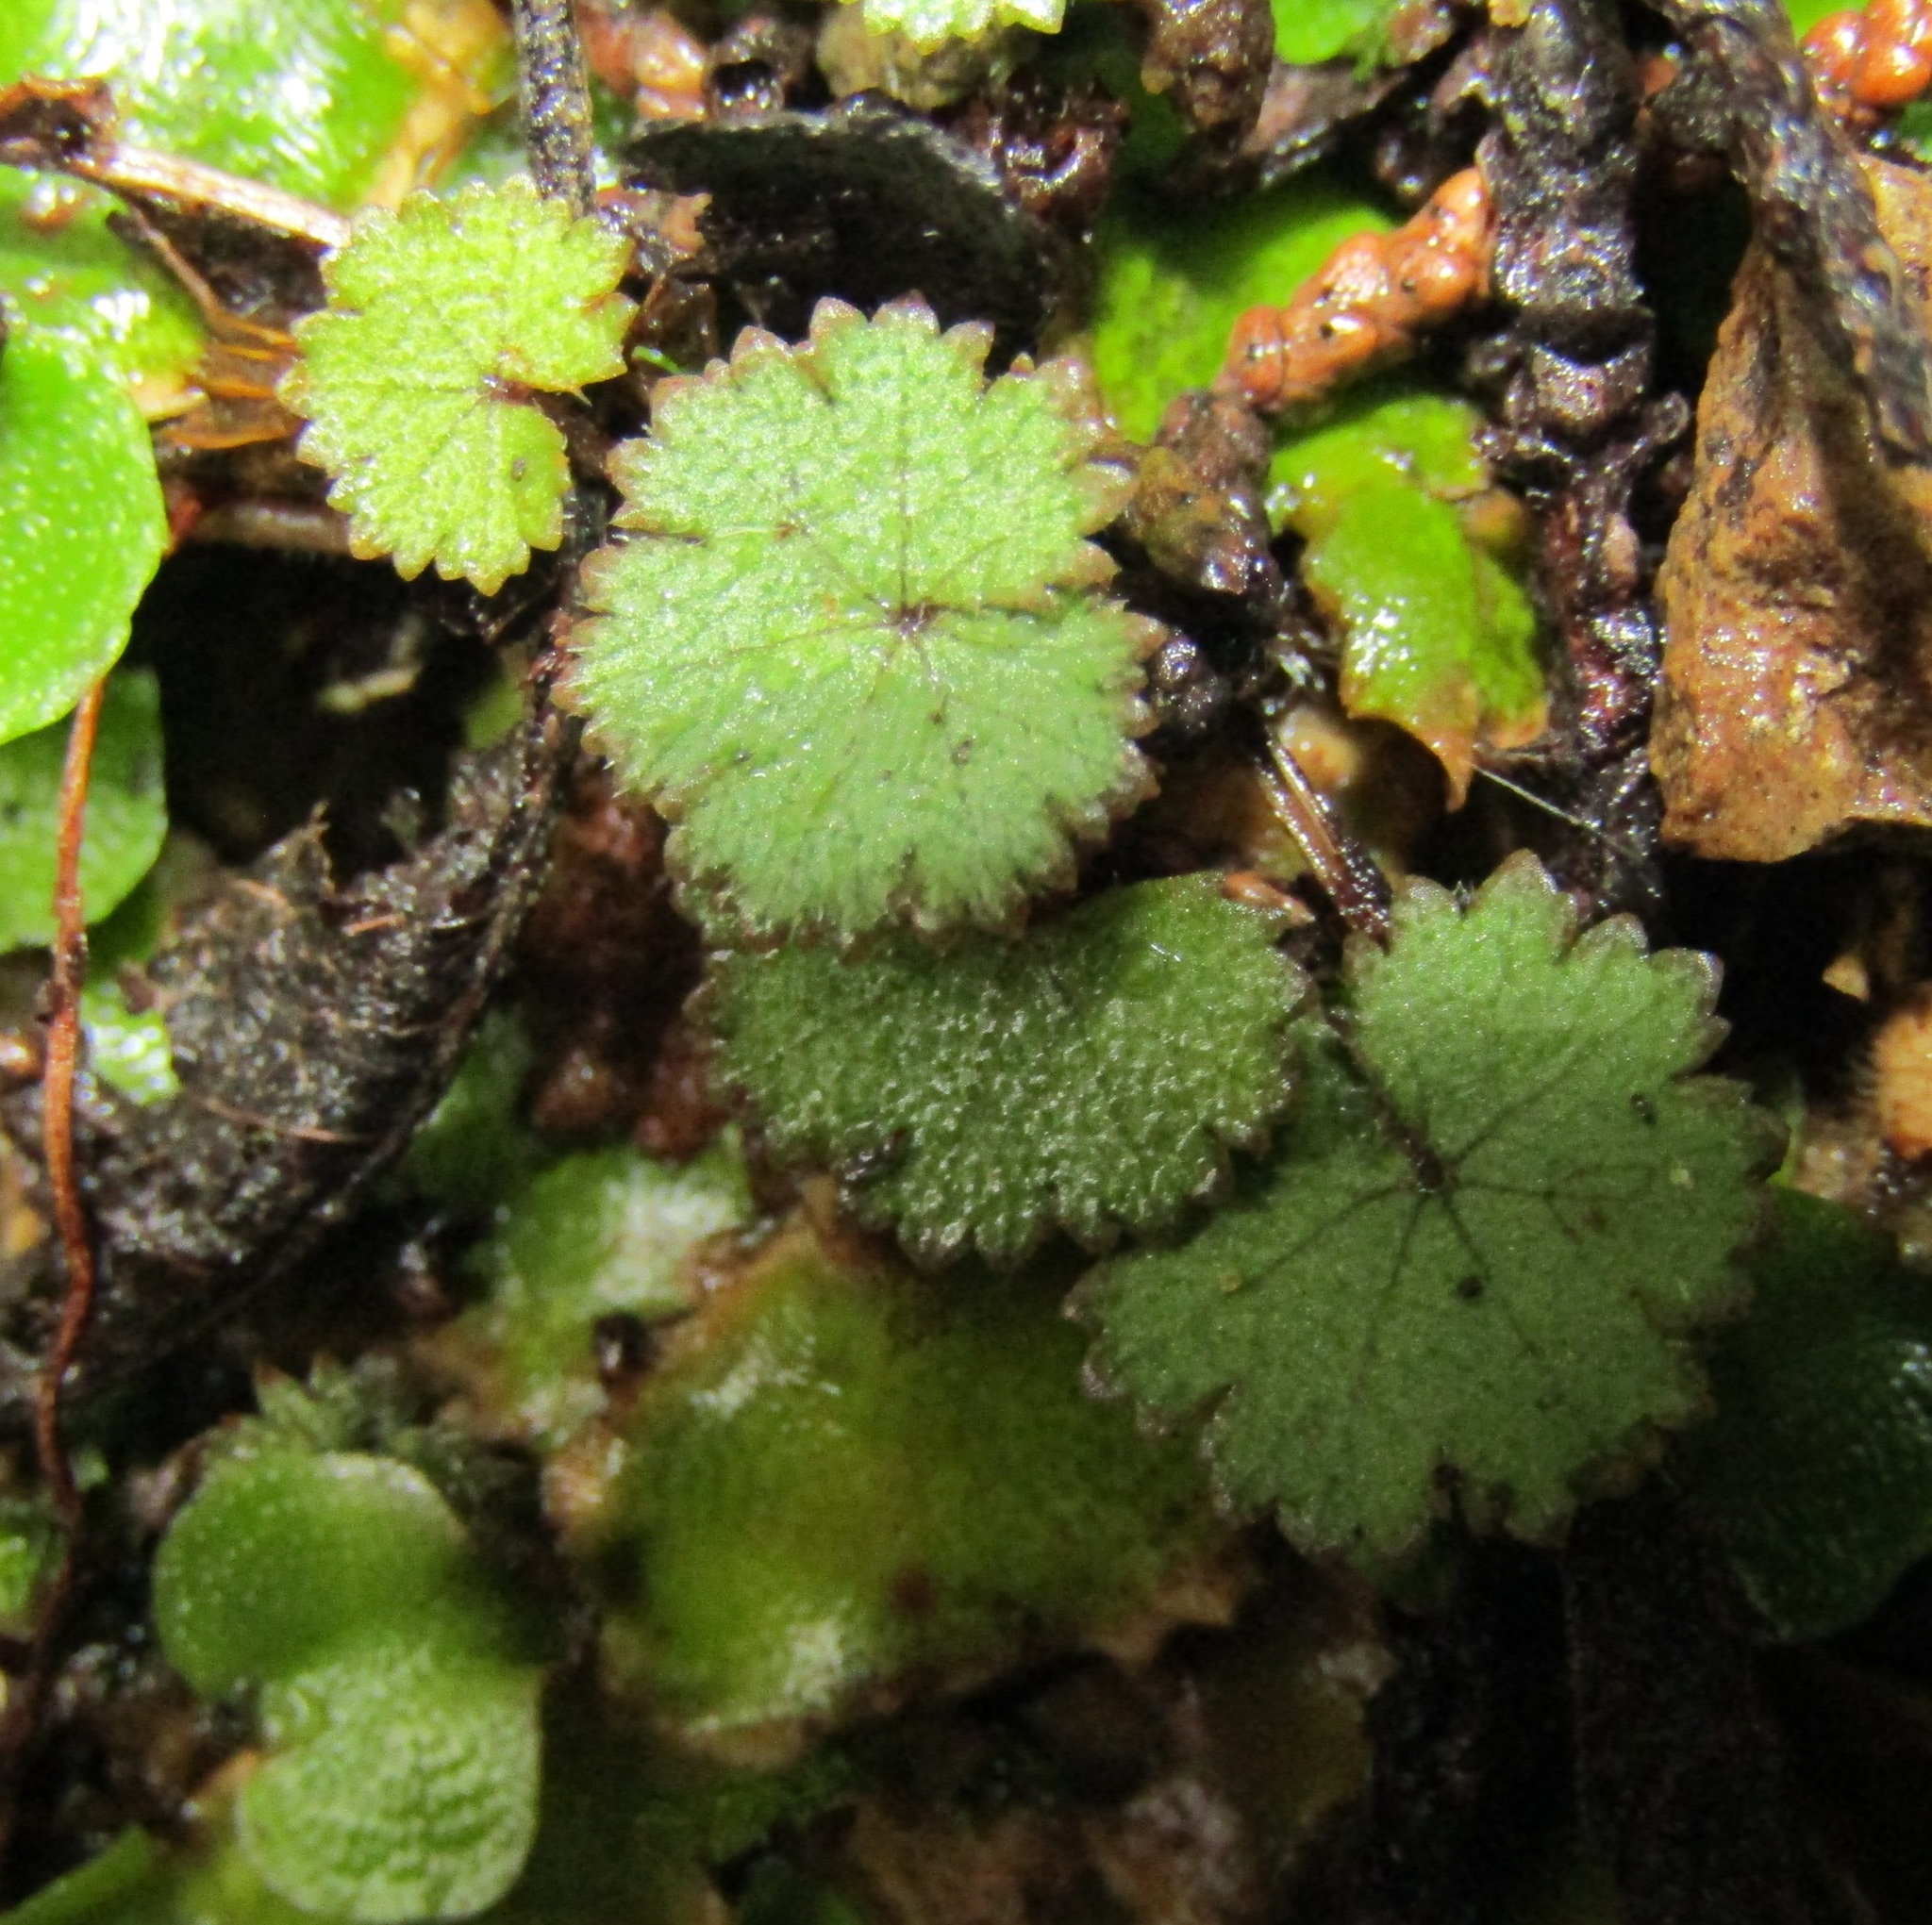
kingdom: Plantae
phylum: Tracheophyta
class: Magnoliopsida
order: Apiales
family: Araliaceae
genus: Hydrocotyle
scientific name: Hydrocotyle moschata
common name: Hairy pennywort
